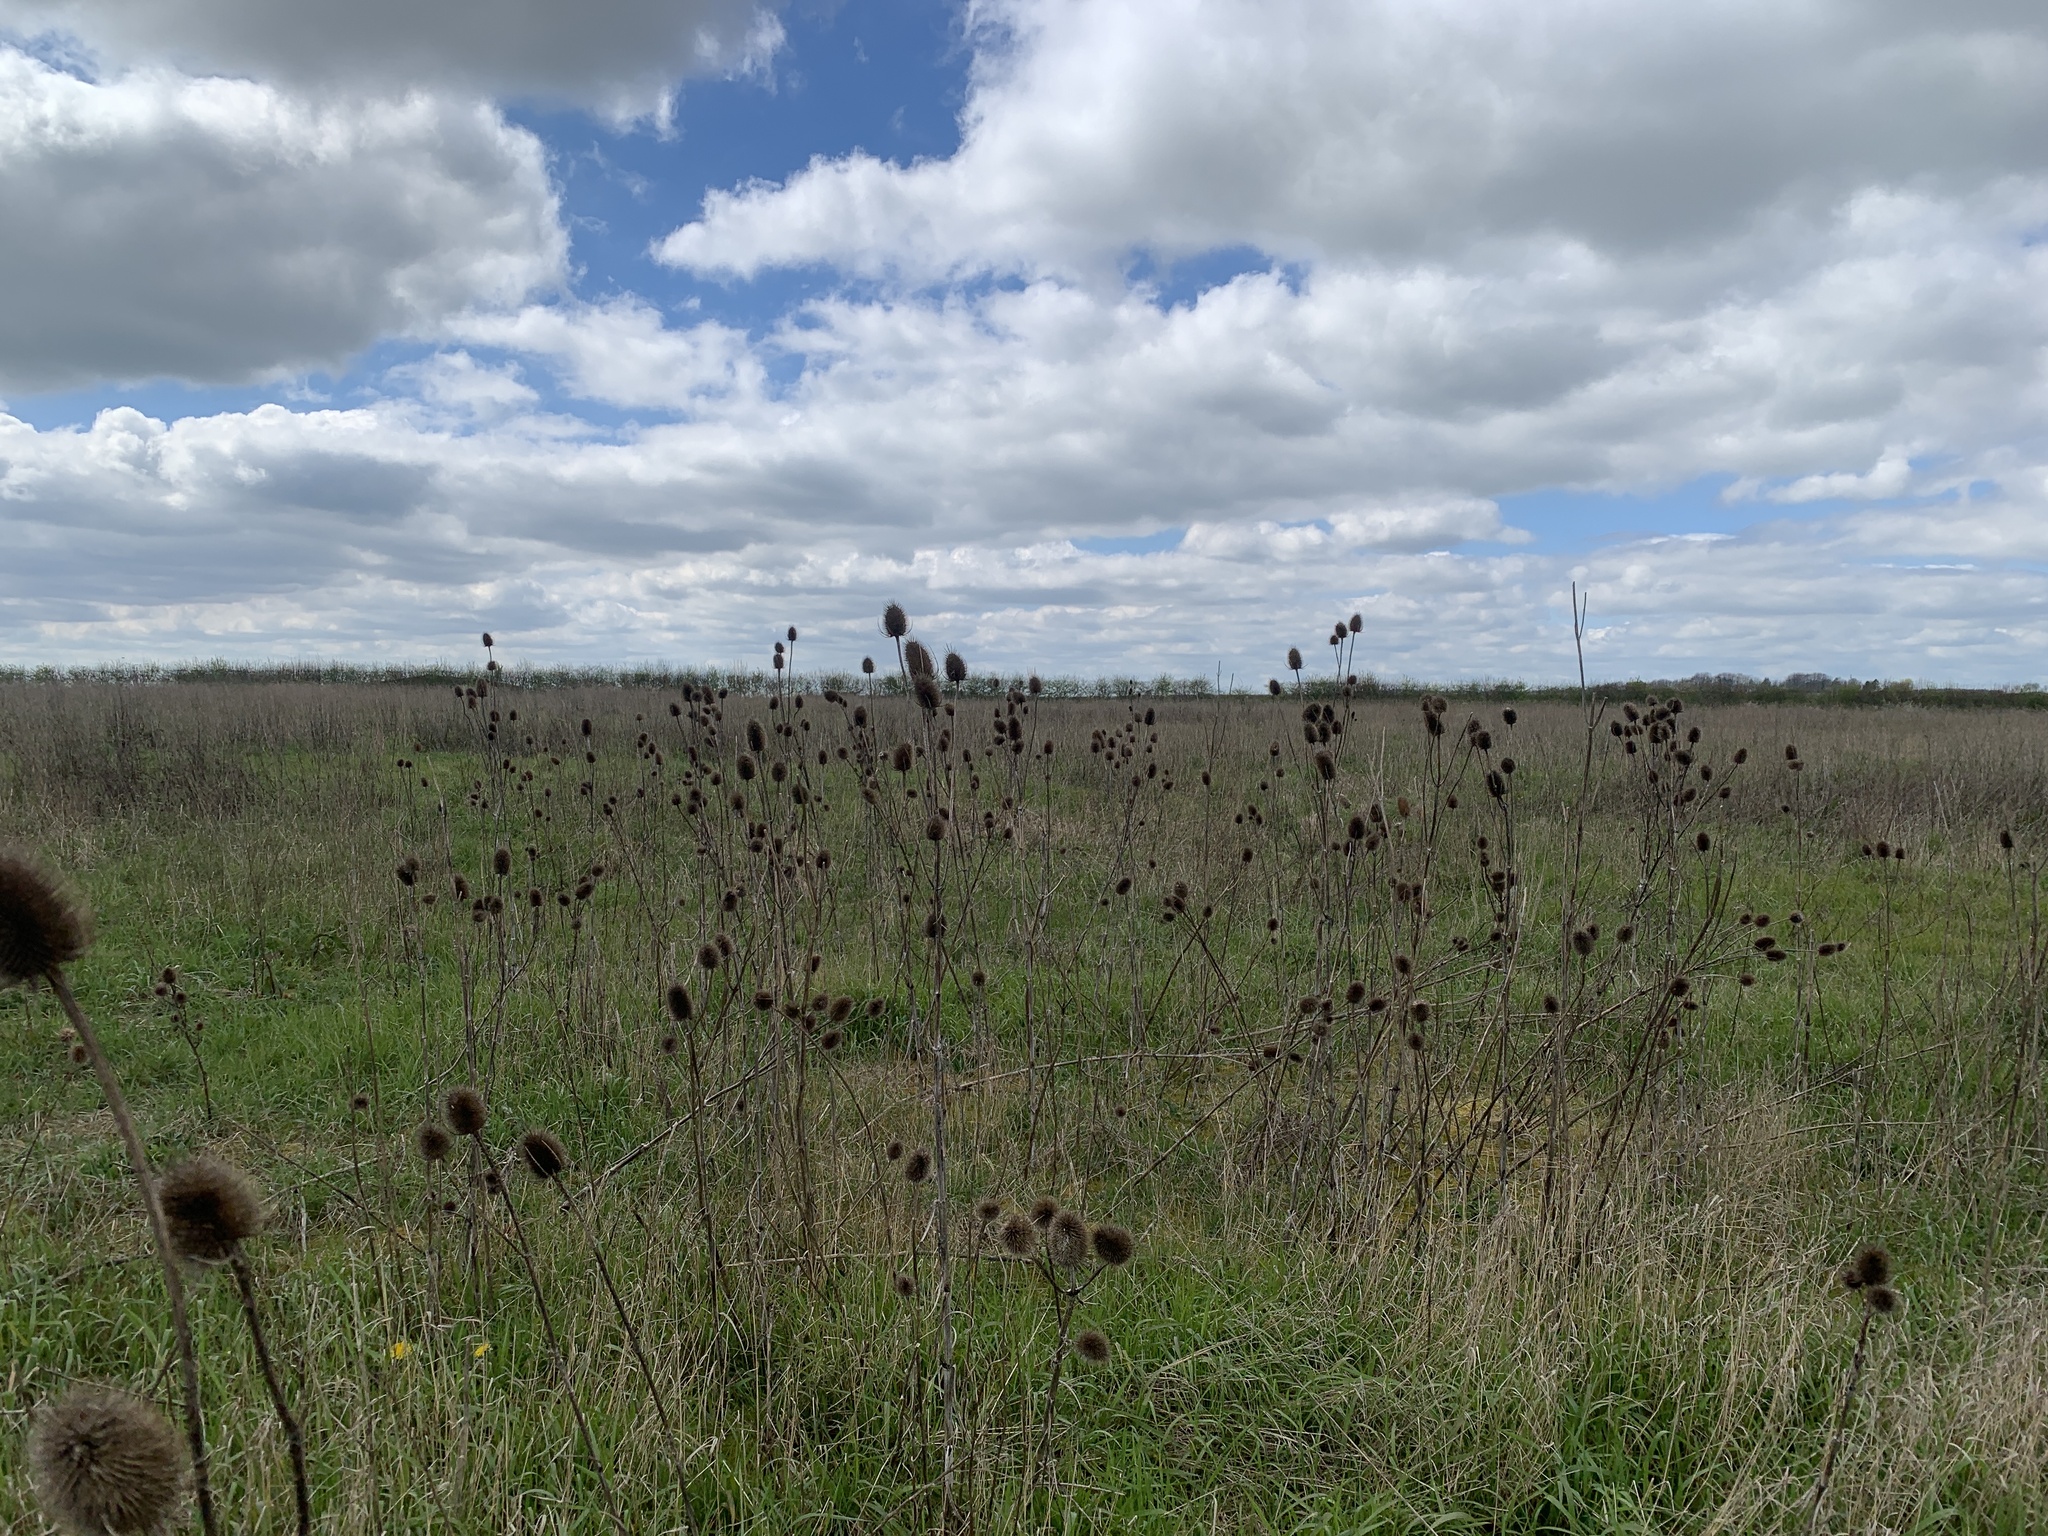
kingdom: Plantae
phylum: Tracheophyta
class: Magnoliopsida
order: Dipsacales
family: Caprifoliaceae
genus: Dipsacus
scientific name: Dipsacus fullonum
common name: Teasel
